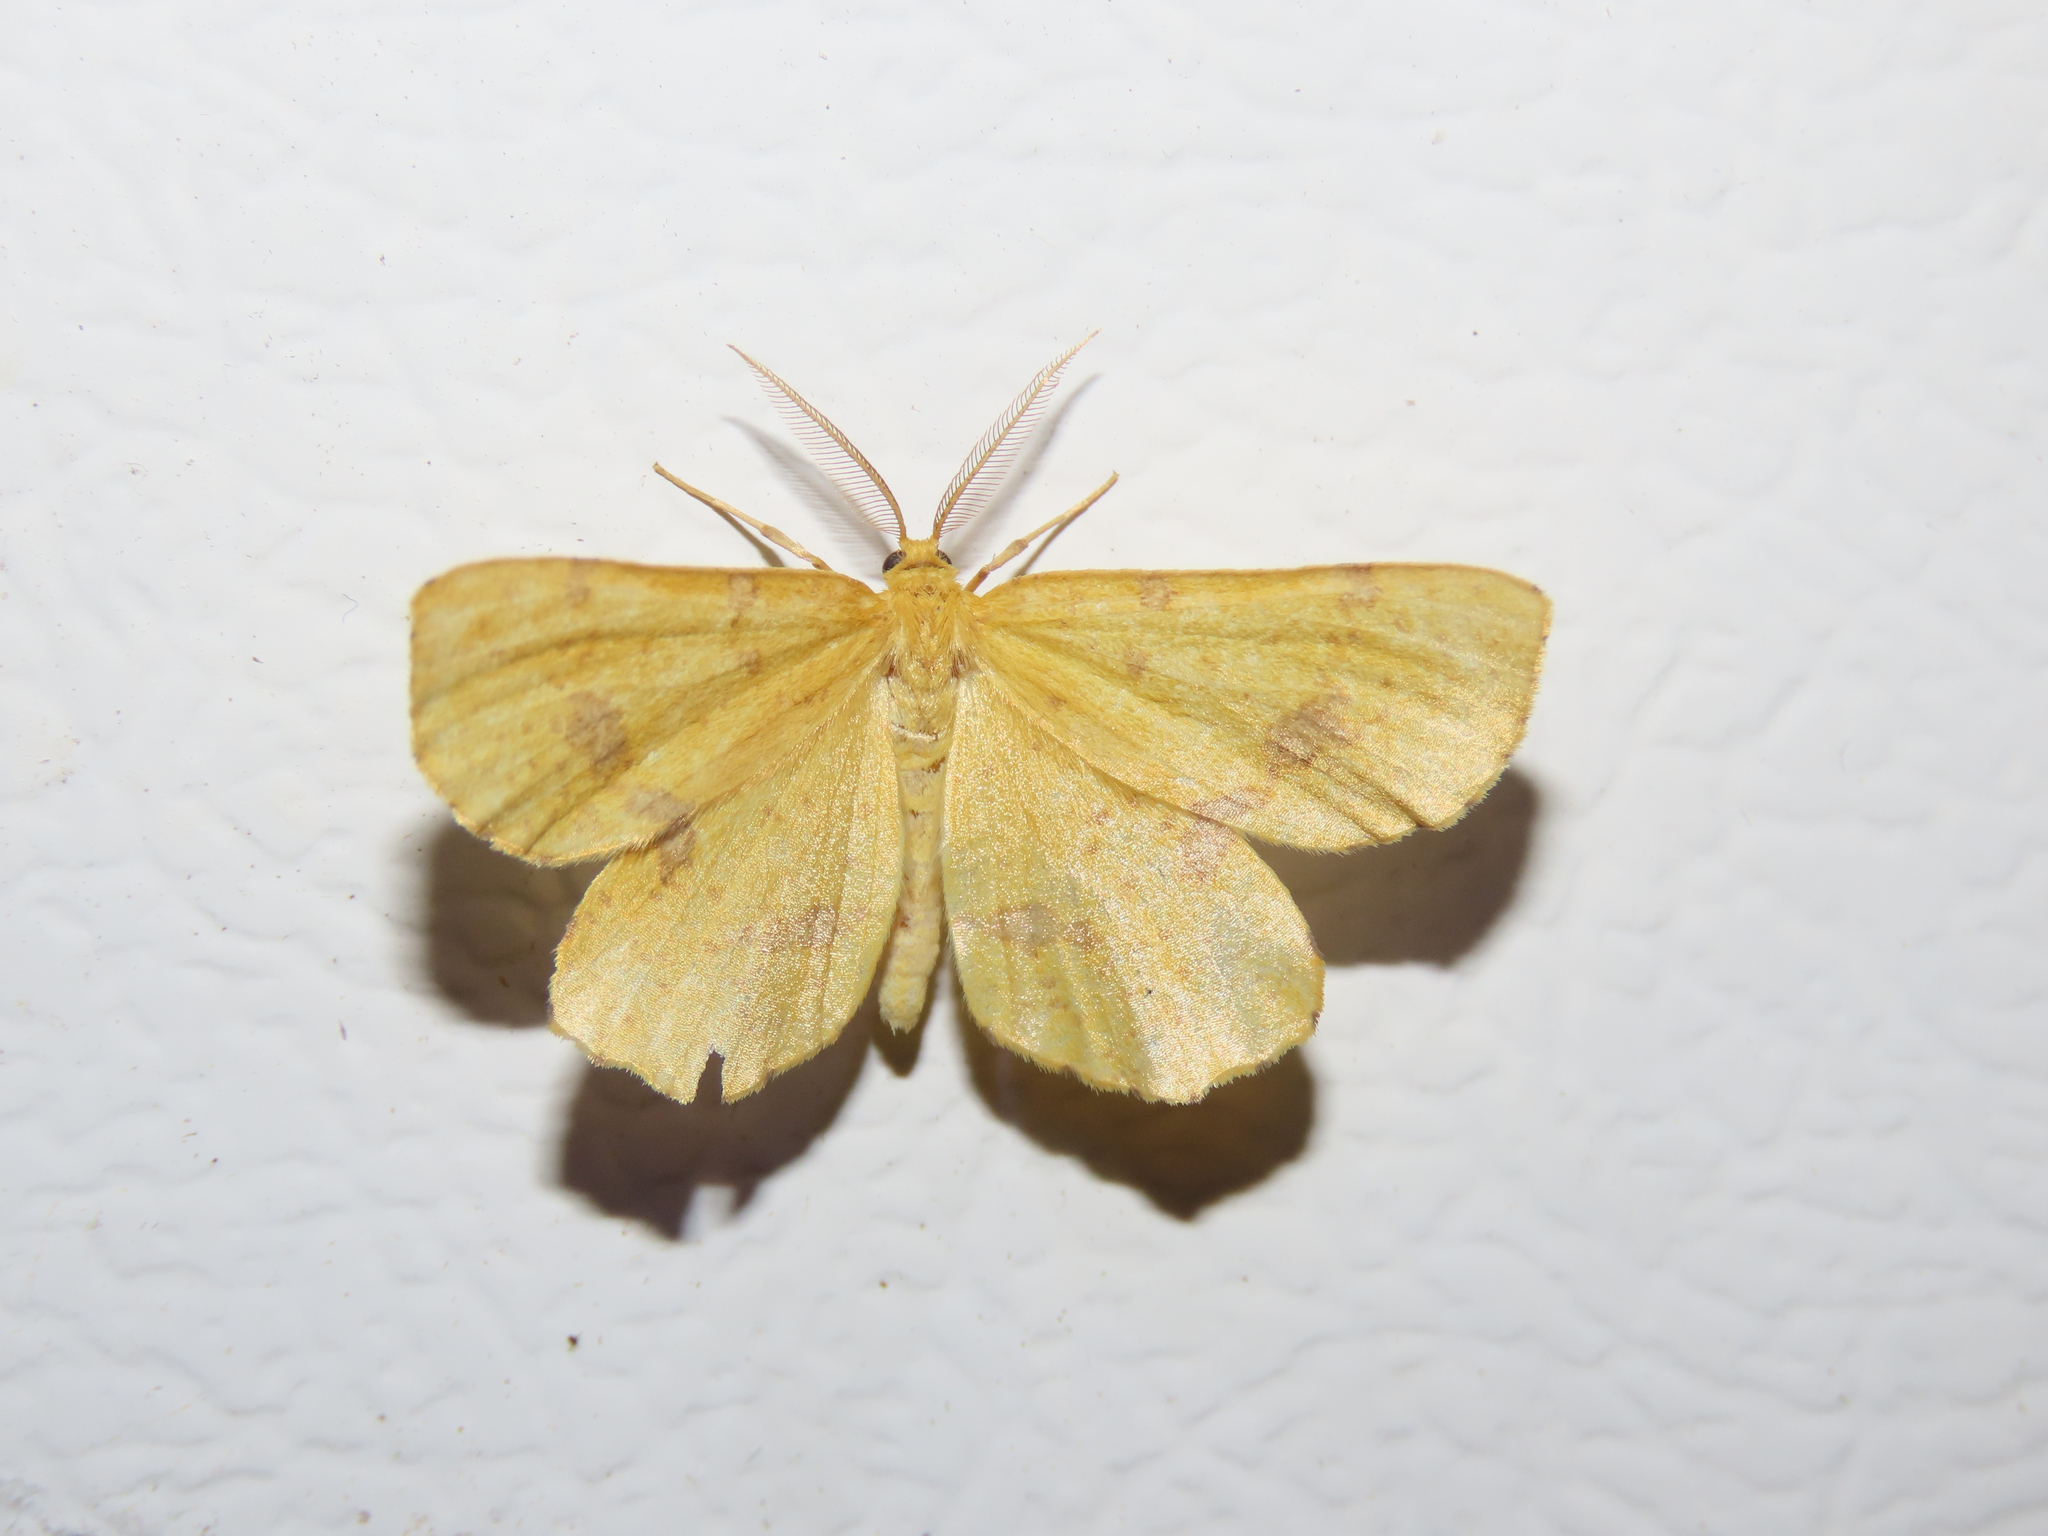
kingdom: Animalia
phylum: Arthropoda
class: Insecta
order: Lepidoptera
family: Geometridae
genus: Xanthotype
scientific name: Xanthotype
